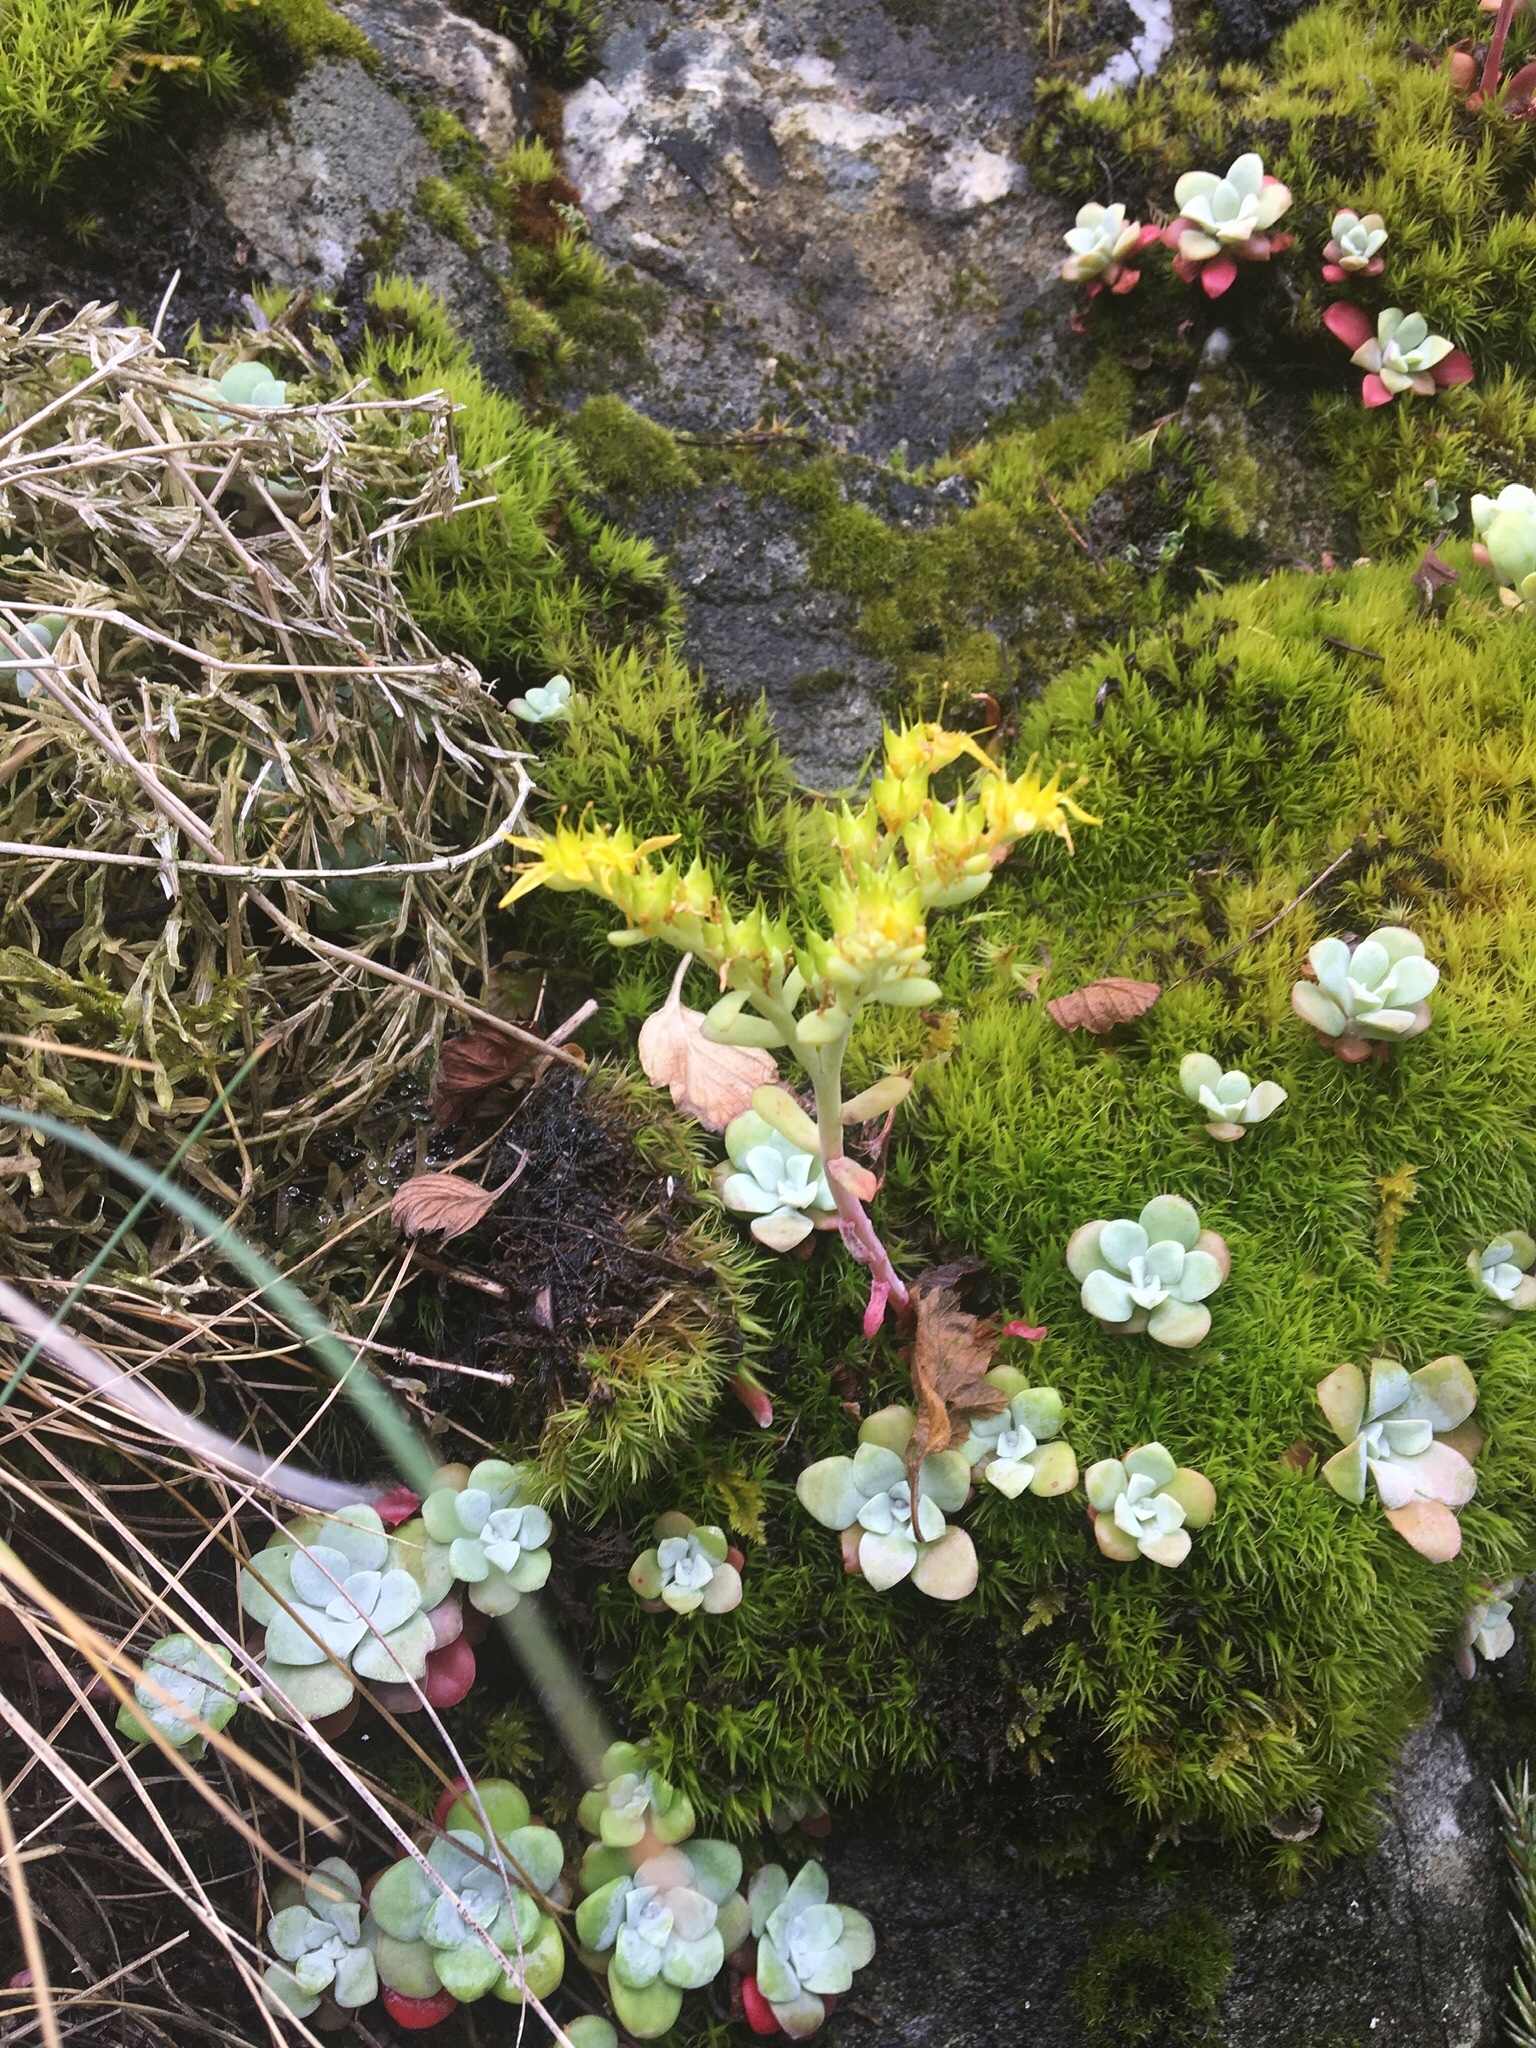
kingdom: Plantae
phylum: Tracheophyta
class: Magnoliopsida
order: Saxifragales
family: Crassulaceae
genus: Sedum
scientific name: Sedum spathulifolium
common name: Colorado stonecrop
